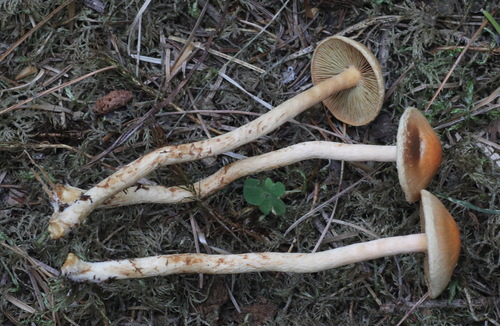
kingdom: Fungi
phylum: Basidiomycota
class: Agaricomycetes
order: Agaricales
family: Strophariaceae
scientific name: Strophariaceae
